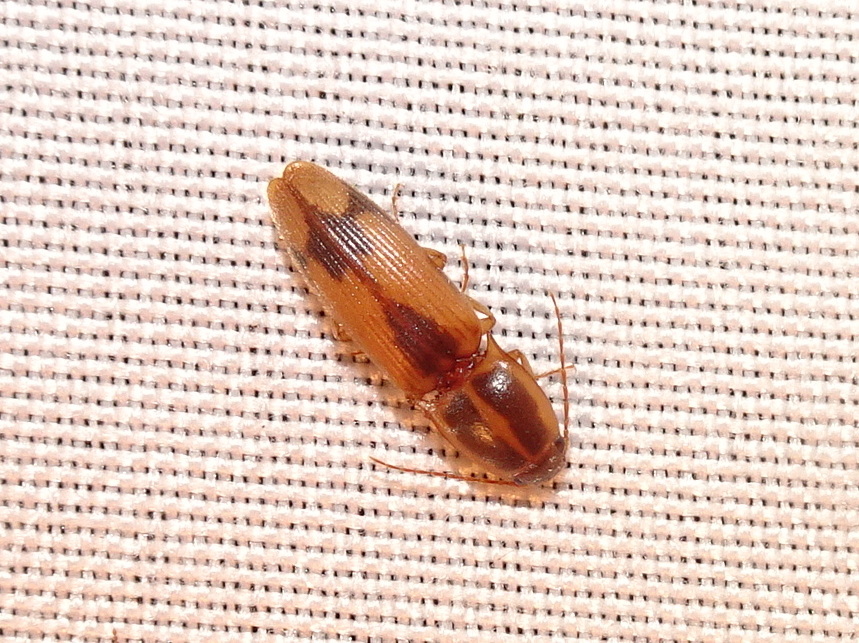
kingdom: Animalia
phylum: Arthropoda
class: Insecta
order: Coleoptera
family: Elateridae
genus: Monocrepidius
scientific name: Monocrepidius
